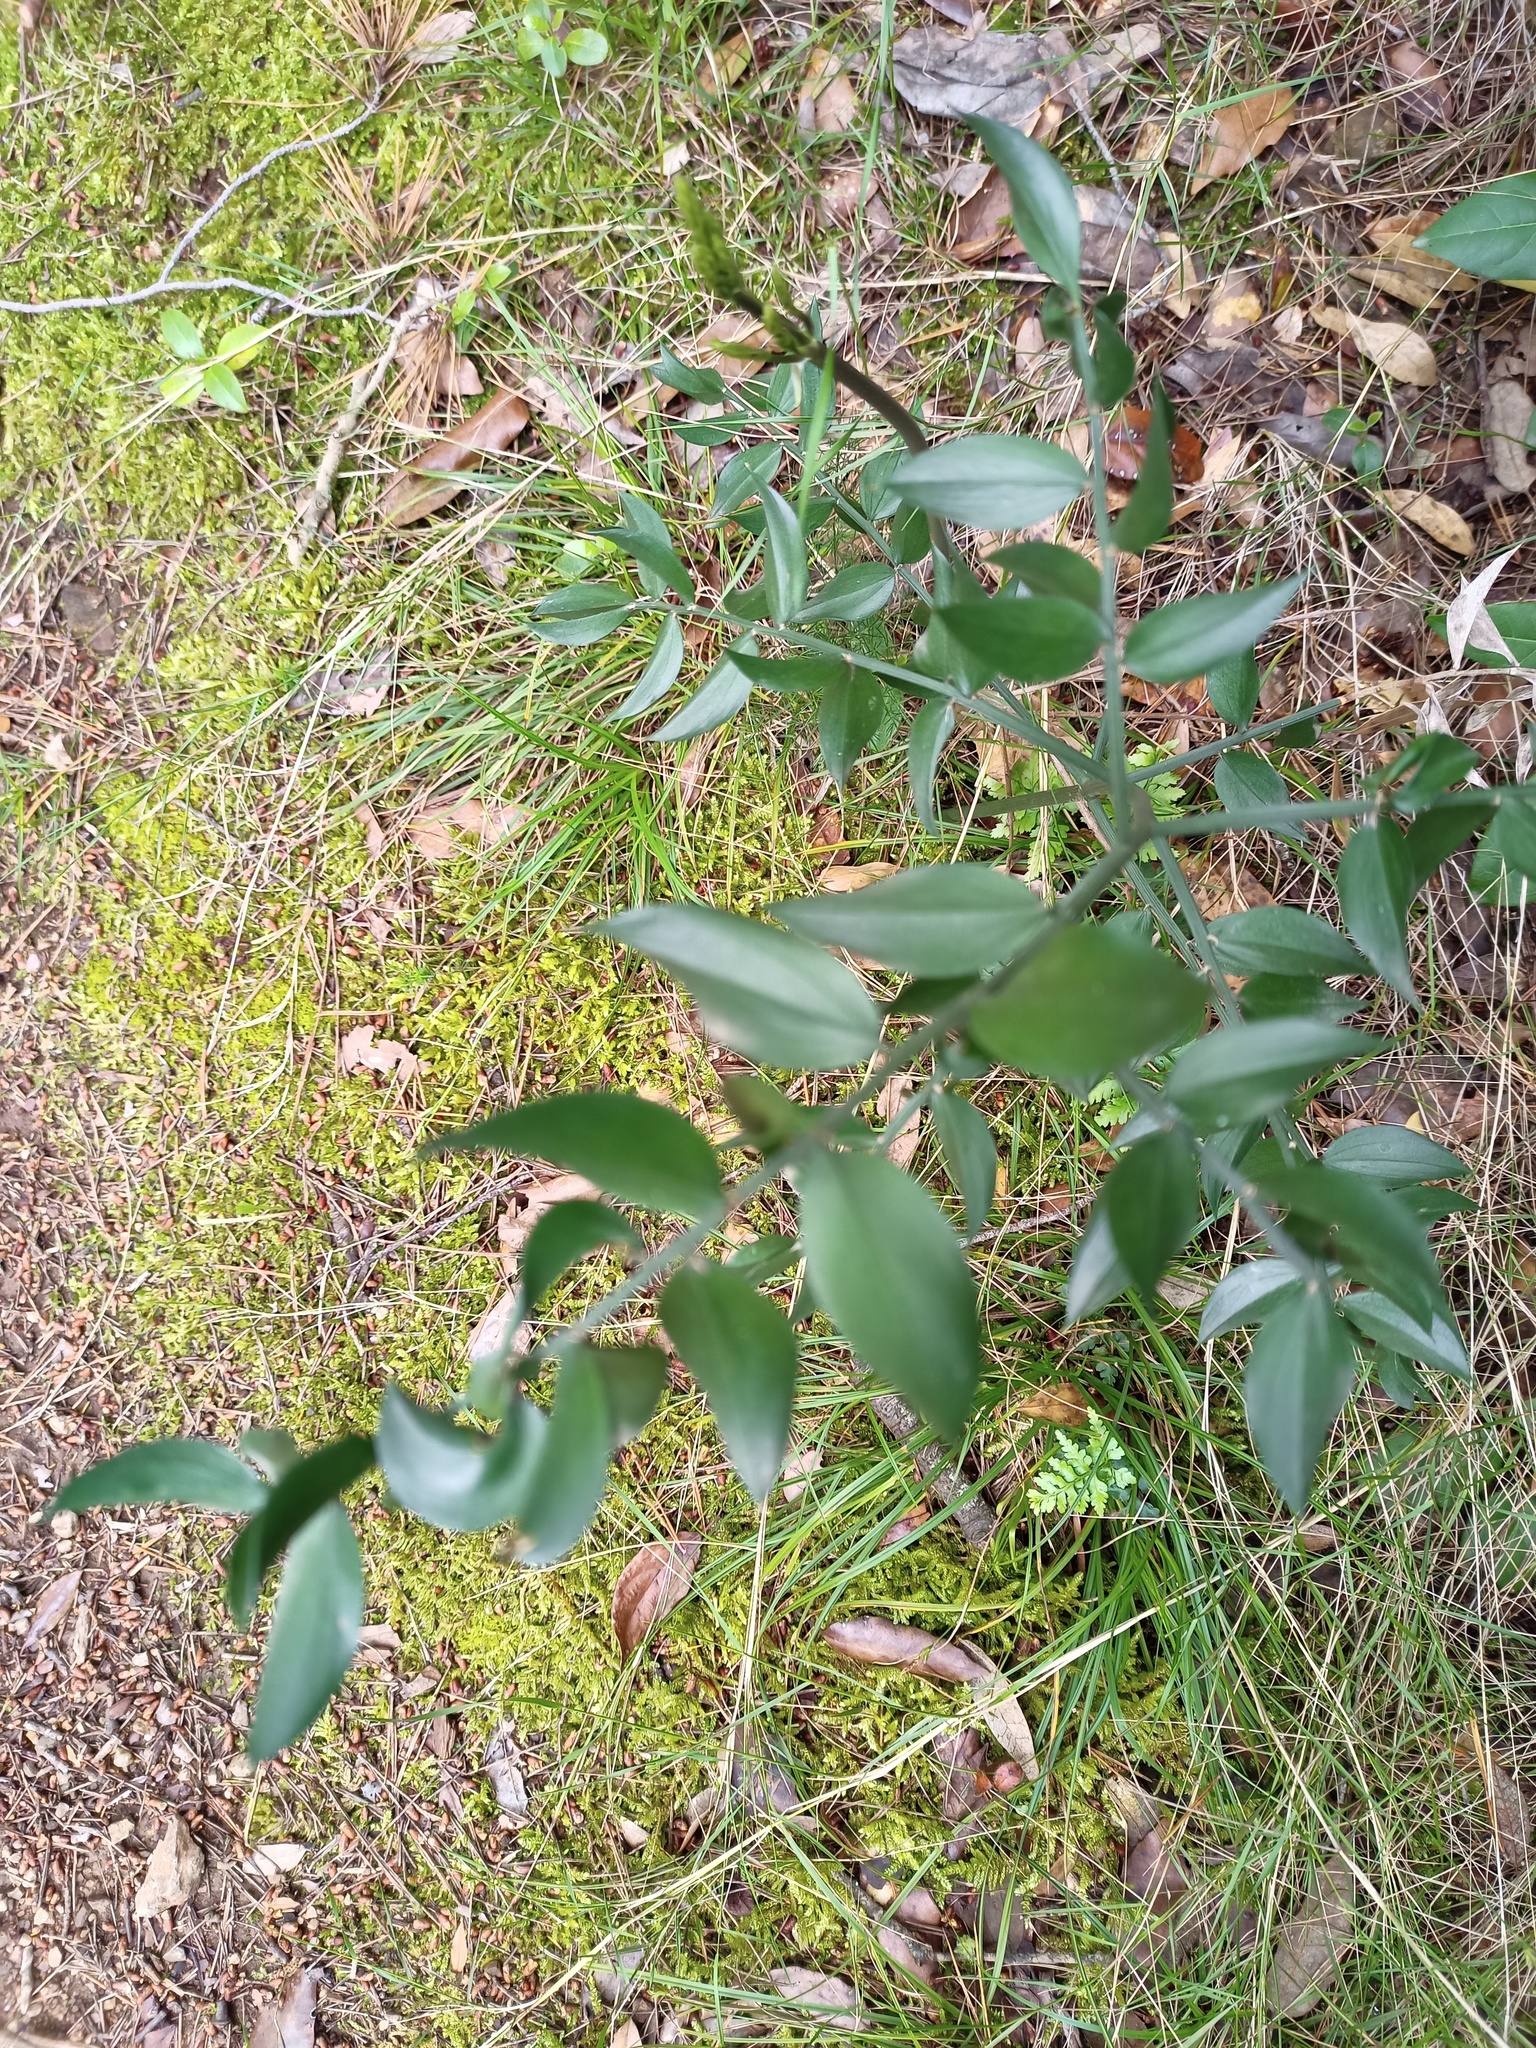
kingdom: Plantae
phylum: Tracheophyta
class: Liliopsida
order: Asparagales
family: Asparagaceae
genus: Ruscus
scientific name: Ruscus aculeatus
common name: Butcher's-broom
